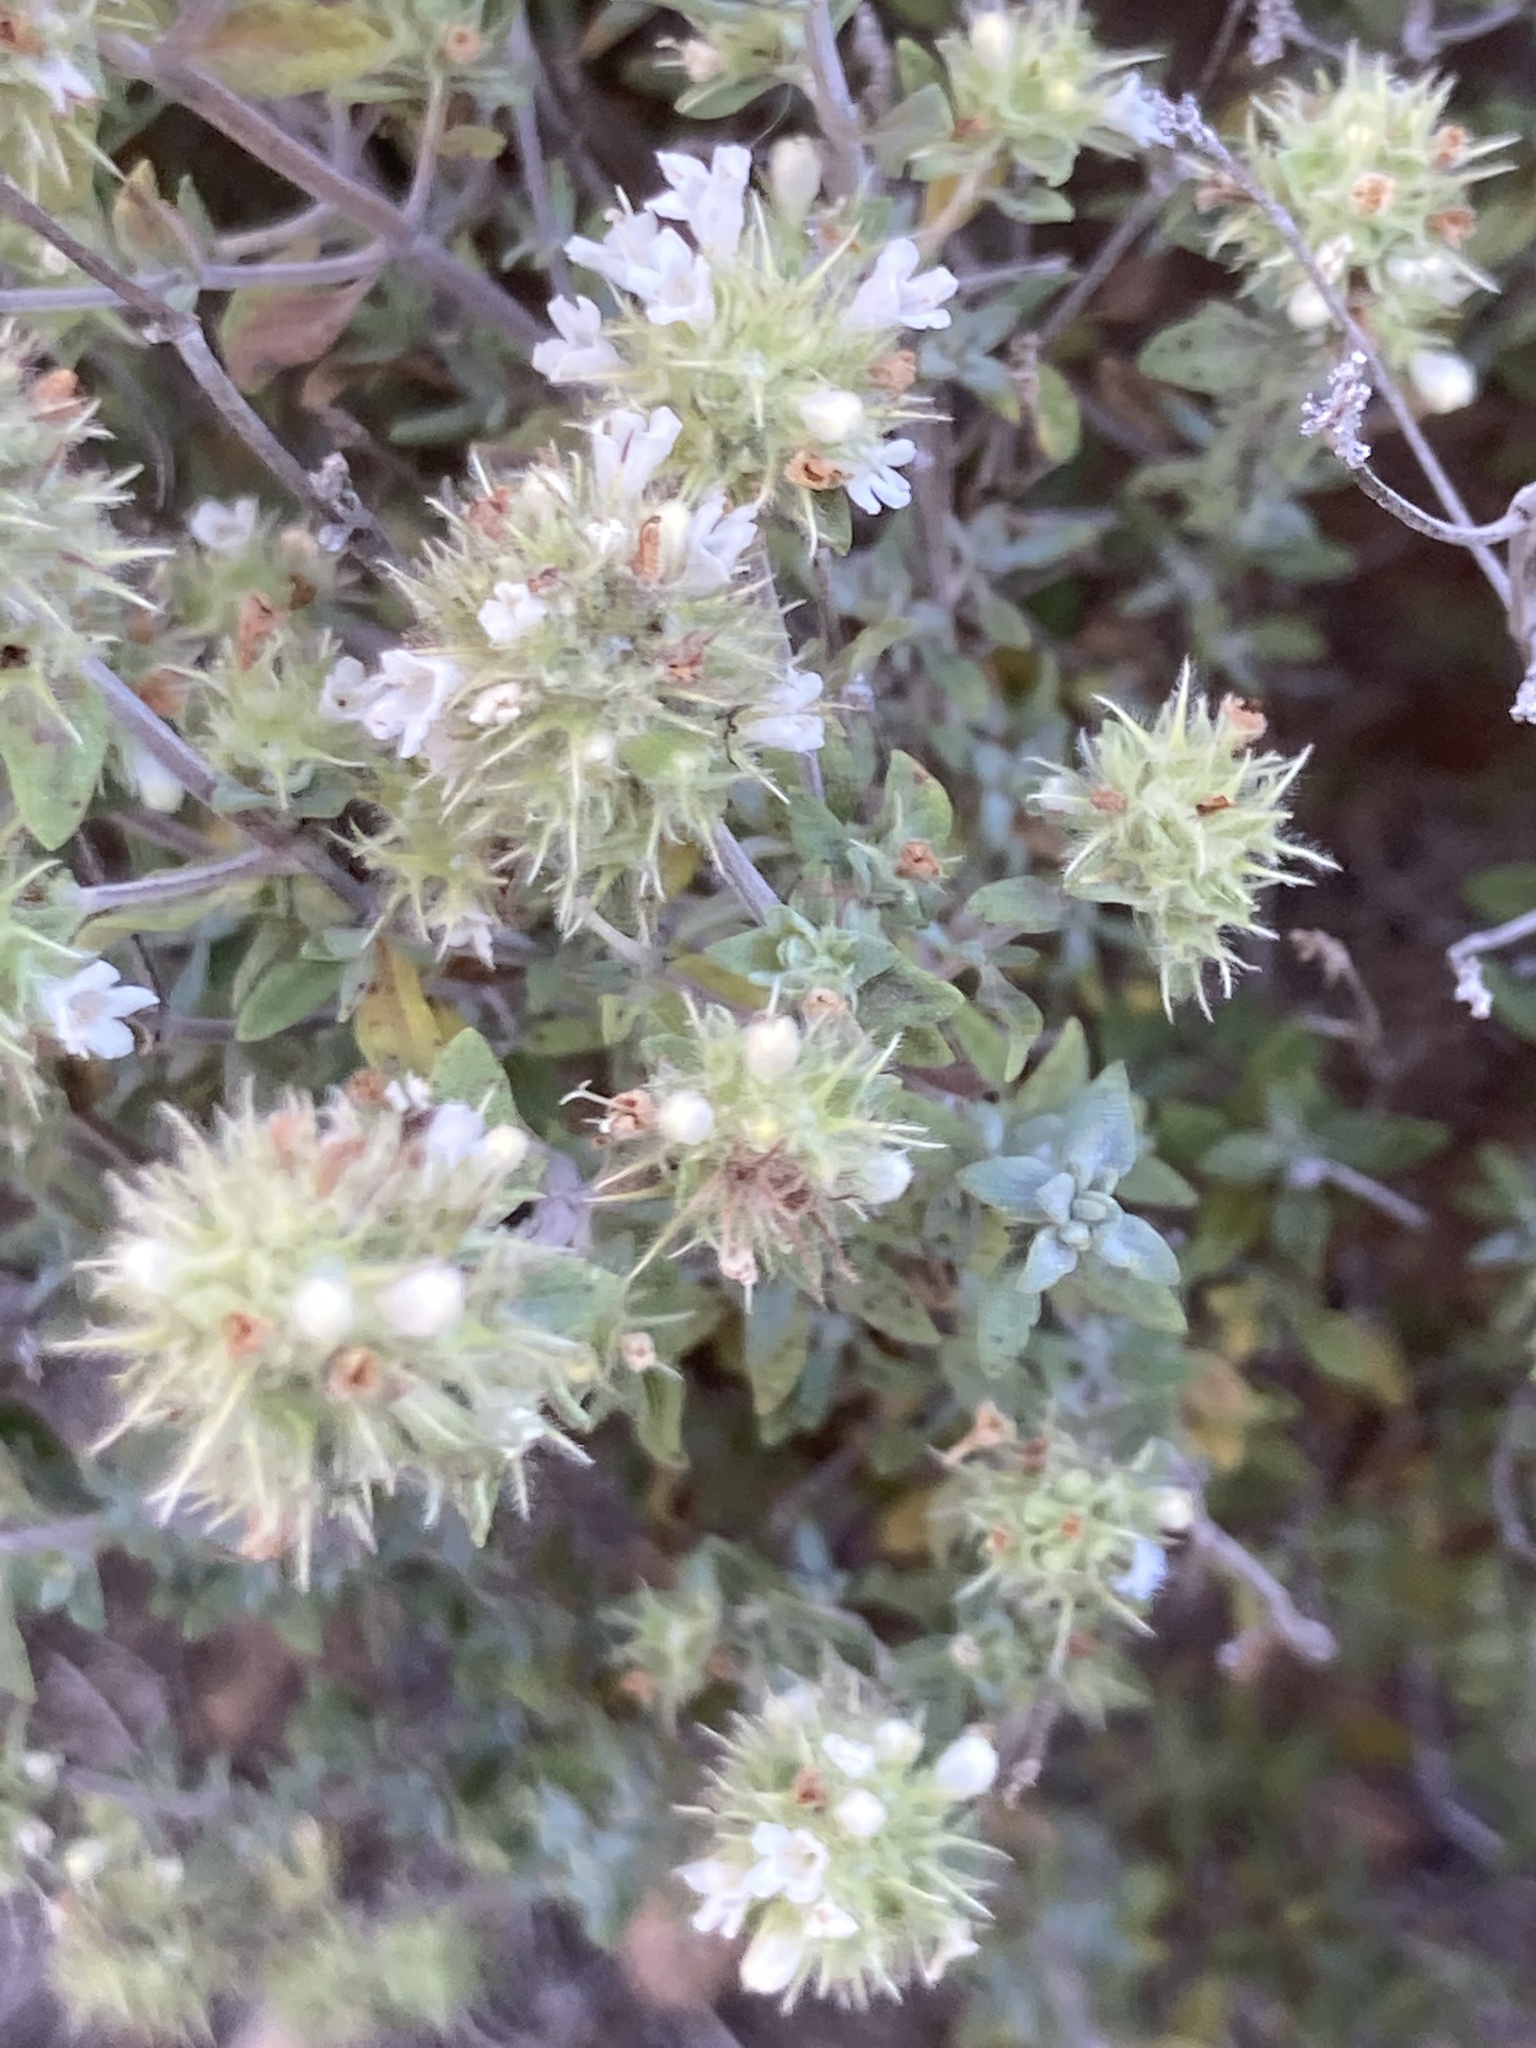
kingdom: Plantae
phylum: Tracheophyta
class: Magnoliopsida
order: Lamiales
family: Lamiaceae
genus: Thymus
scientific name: Thymus mastichina
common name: Mastic thyme
